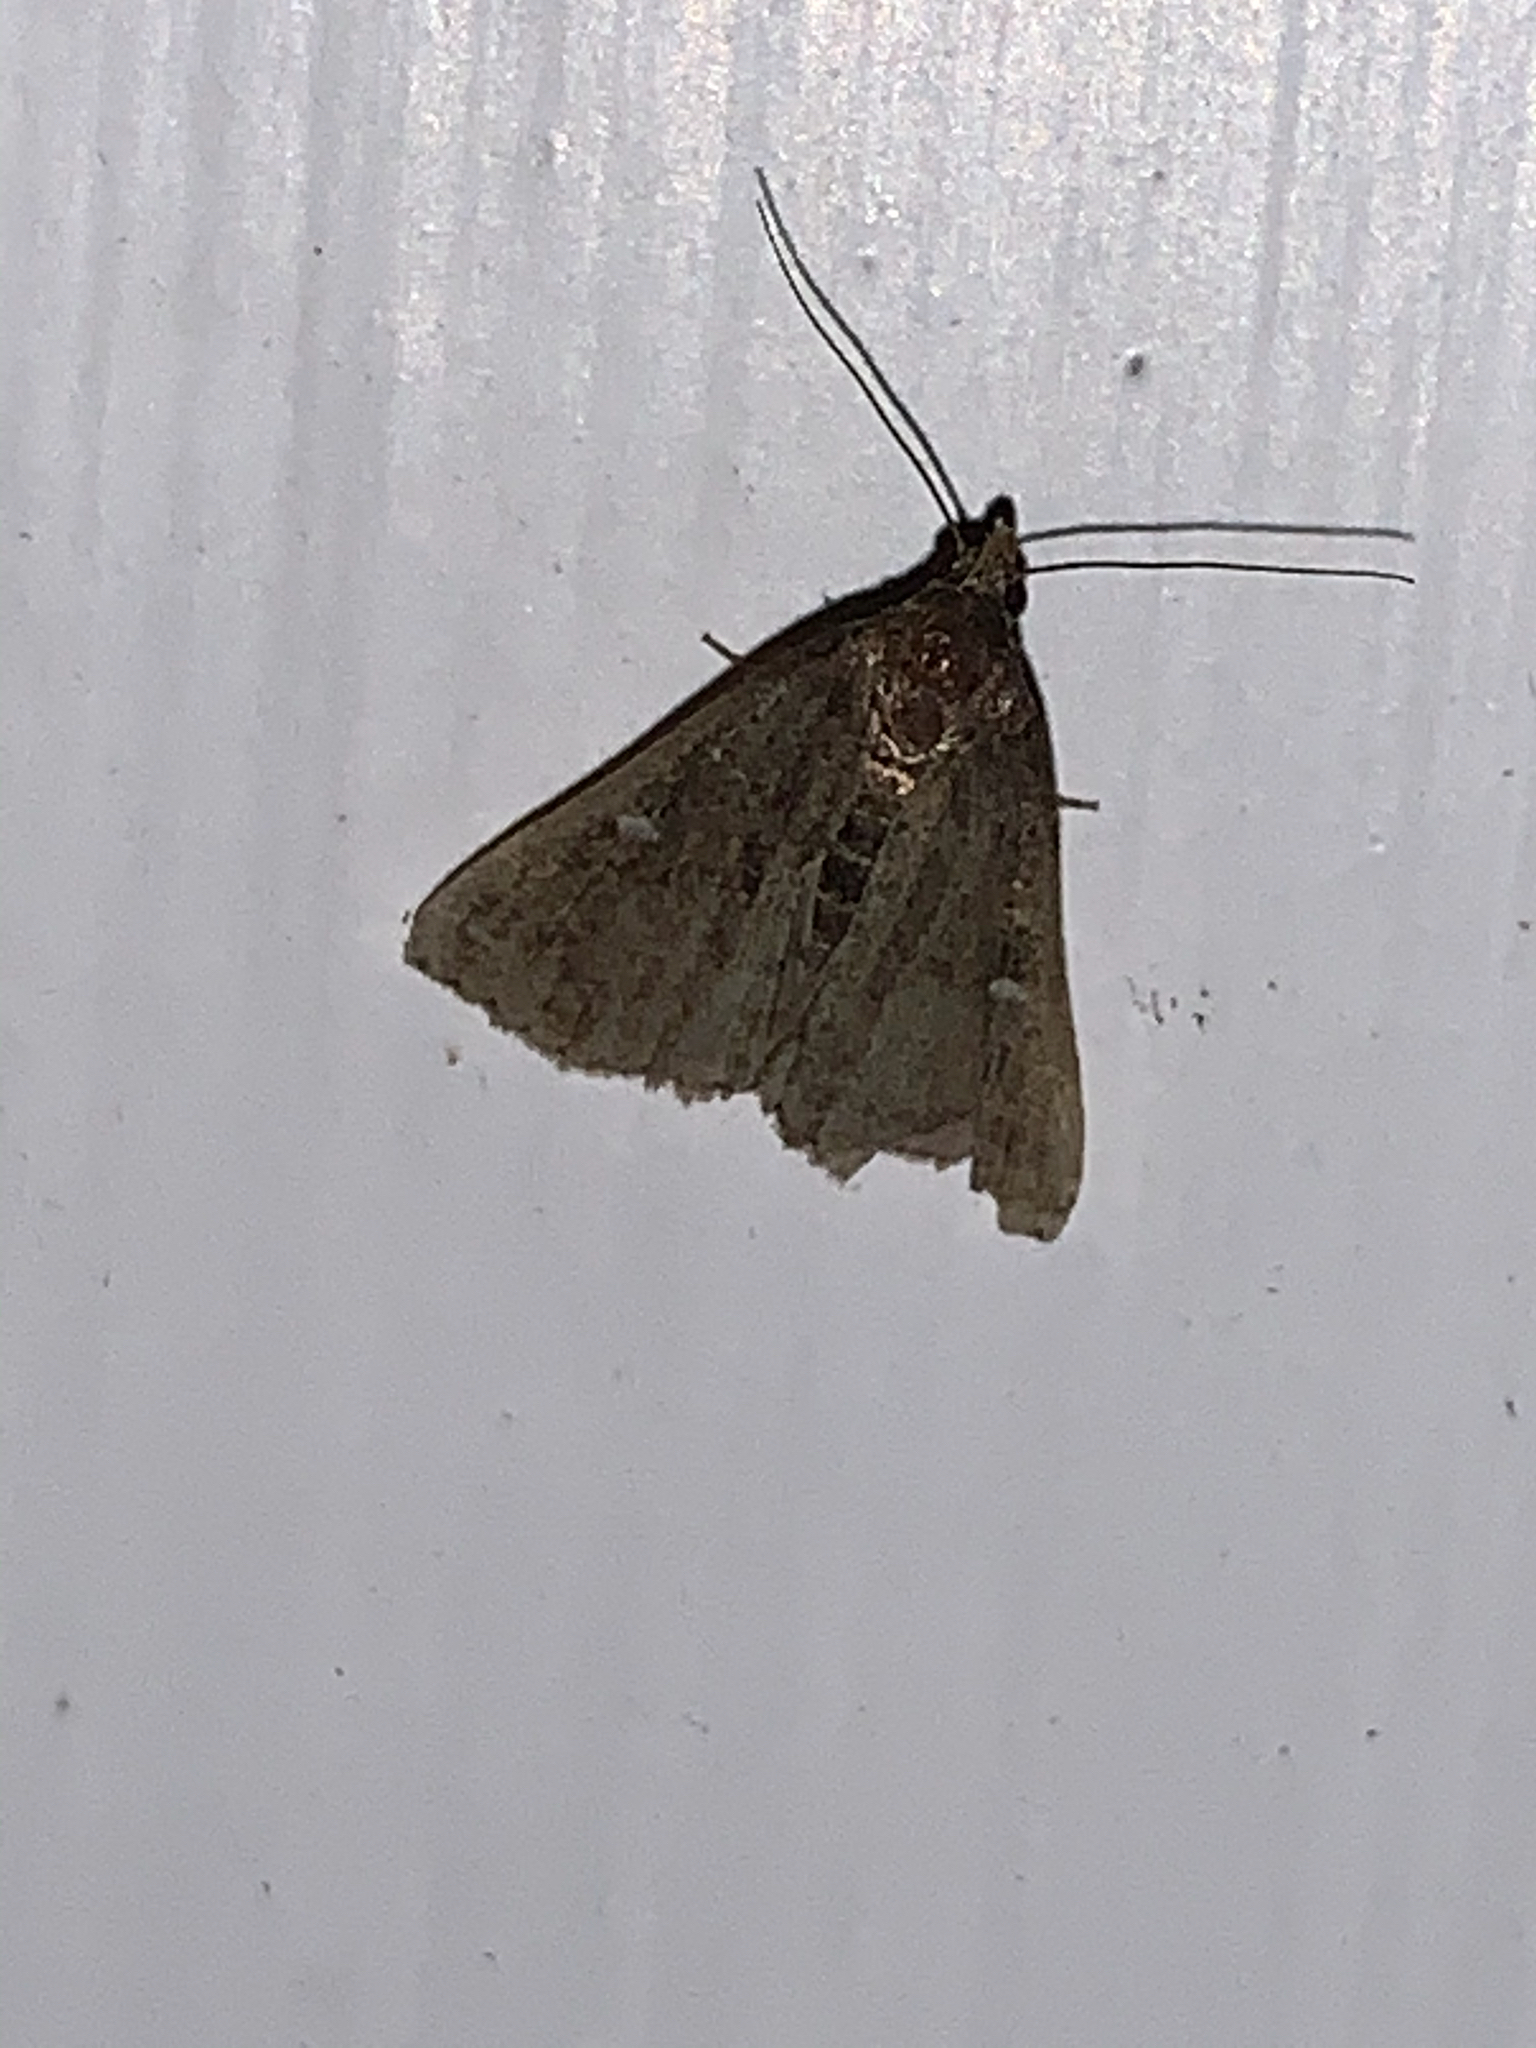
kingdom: Animalia
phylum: Arthropoda
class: Insecta
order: Lepidoptera
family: Erebidae
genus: Tetanolita
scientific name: Tetanolita mynesalis
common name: Smoky tetanolita moth
